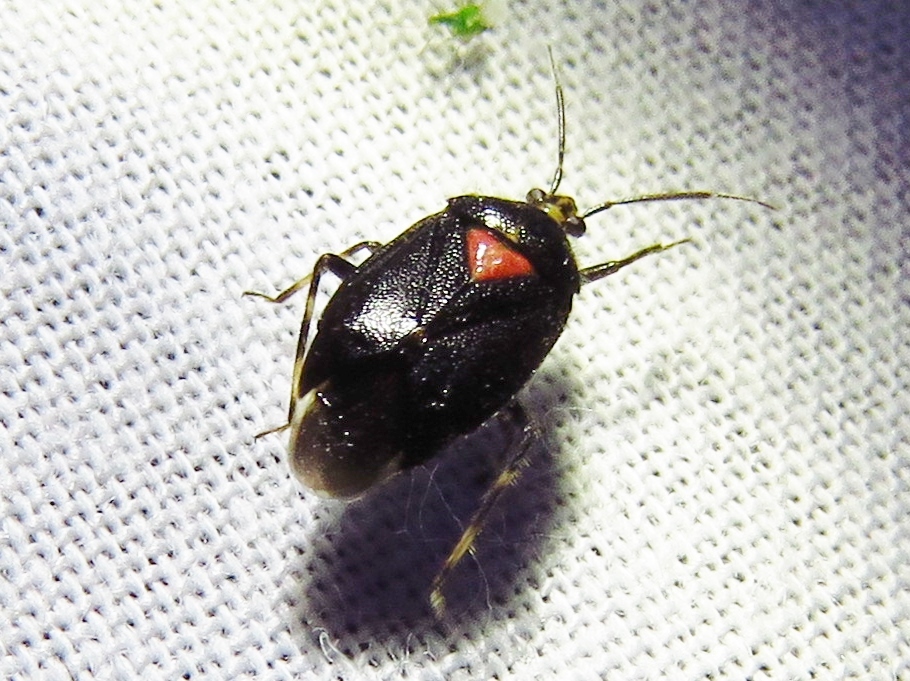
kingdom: Animalia
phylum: Arthropoda
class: Insecta
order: Hemiptera
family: Miridae
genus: Deraeocoris
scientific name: Deraeocoris sayi
